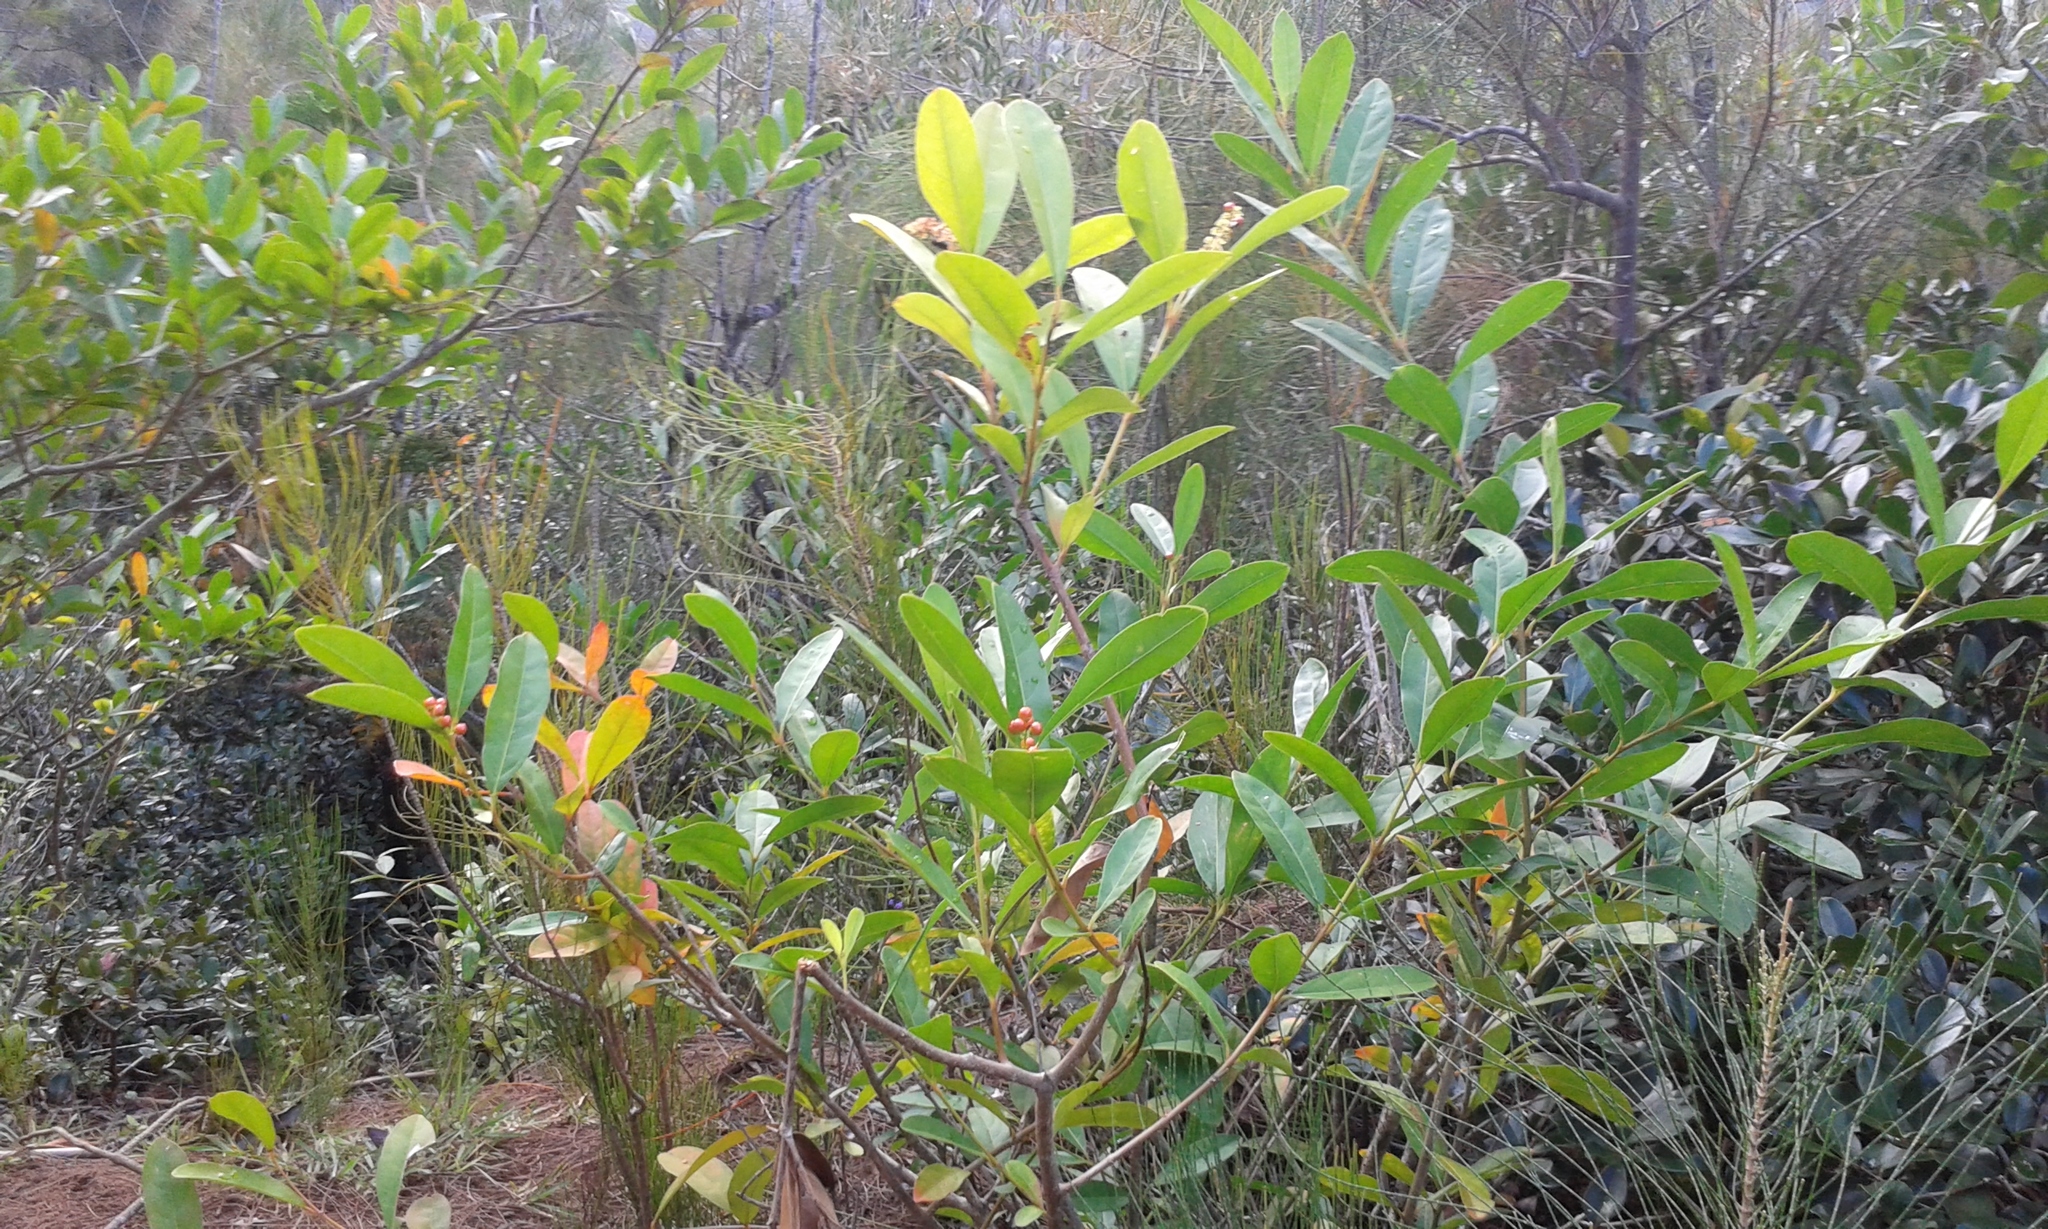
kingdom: Plantae
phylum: Tracheophyta
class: Magnoliopsida
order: Lamiales
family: Verbenaceae
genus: Citharexylum
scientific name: Citharexylum caudatum
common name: Fiddlewood
